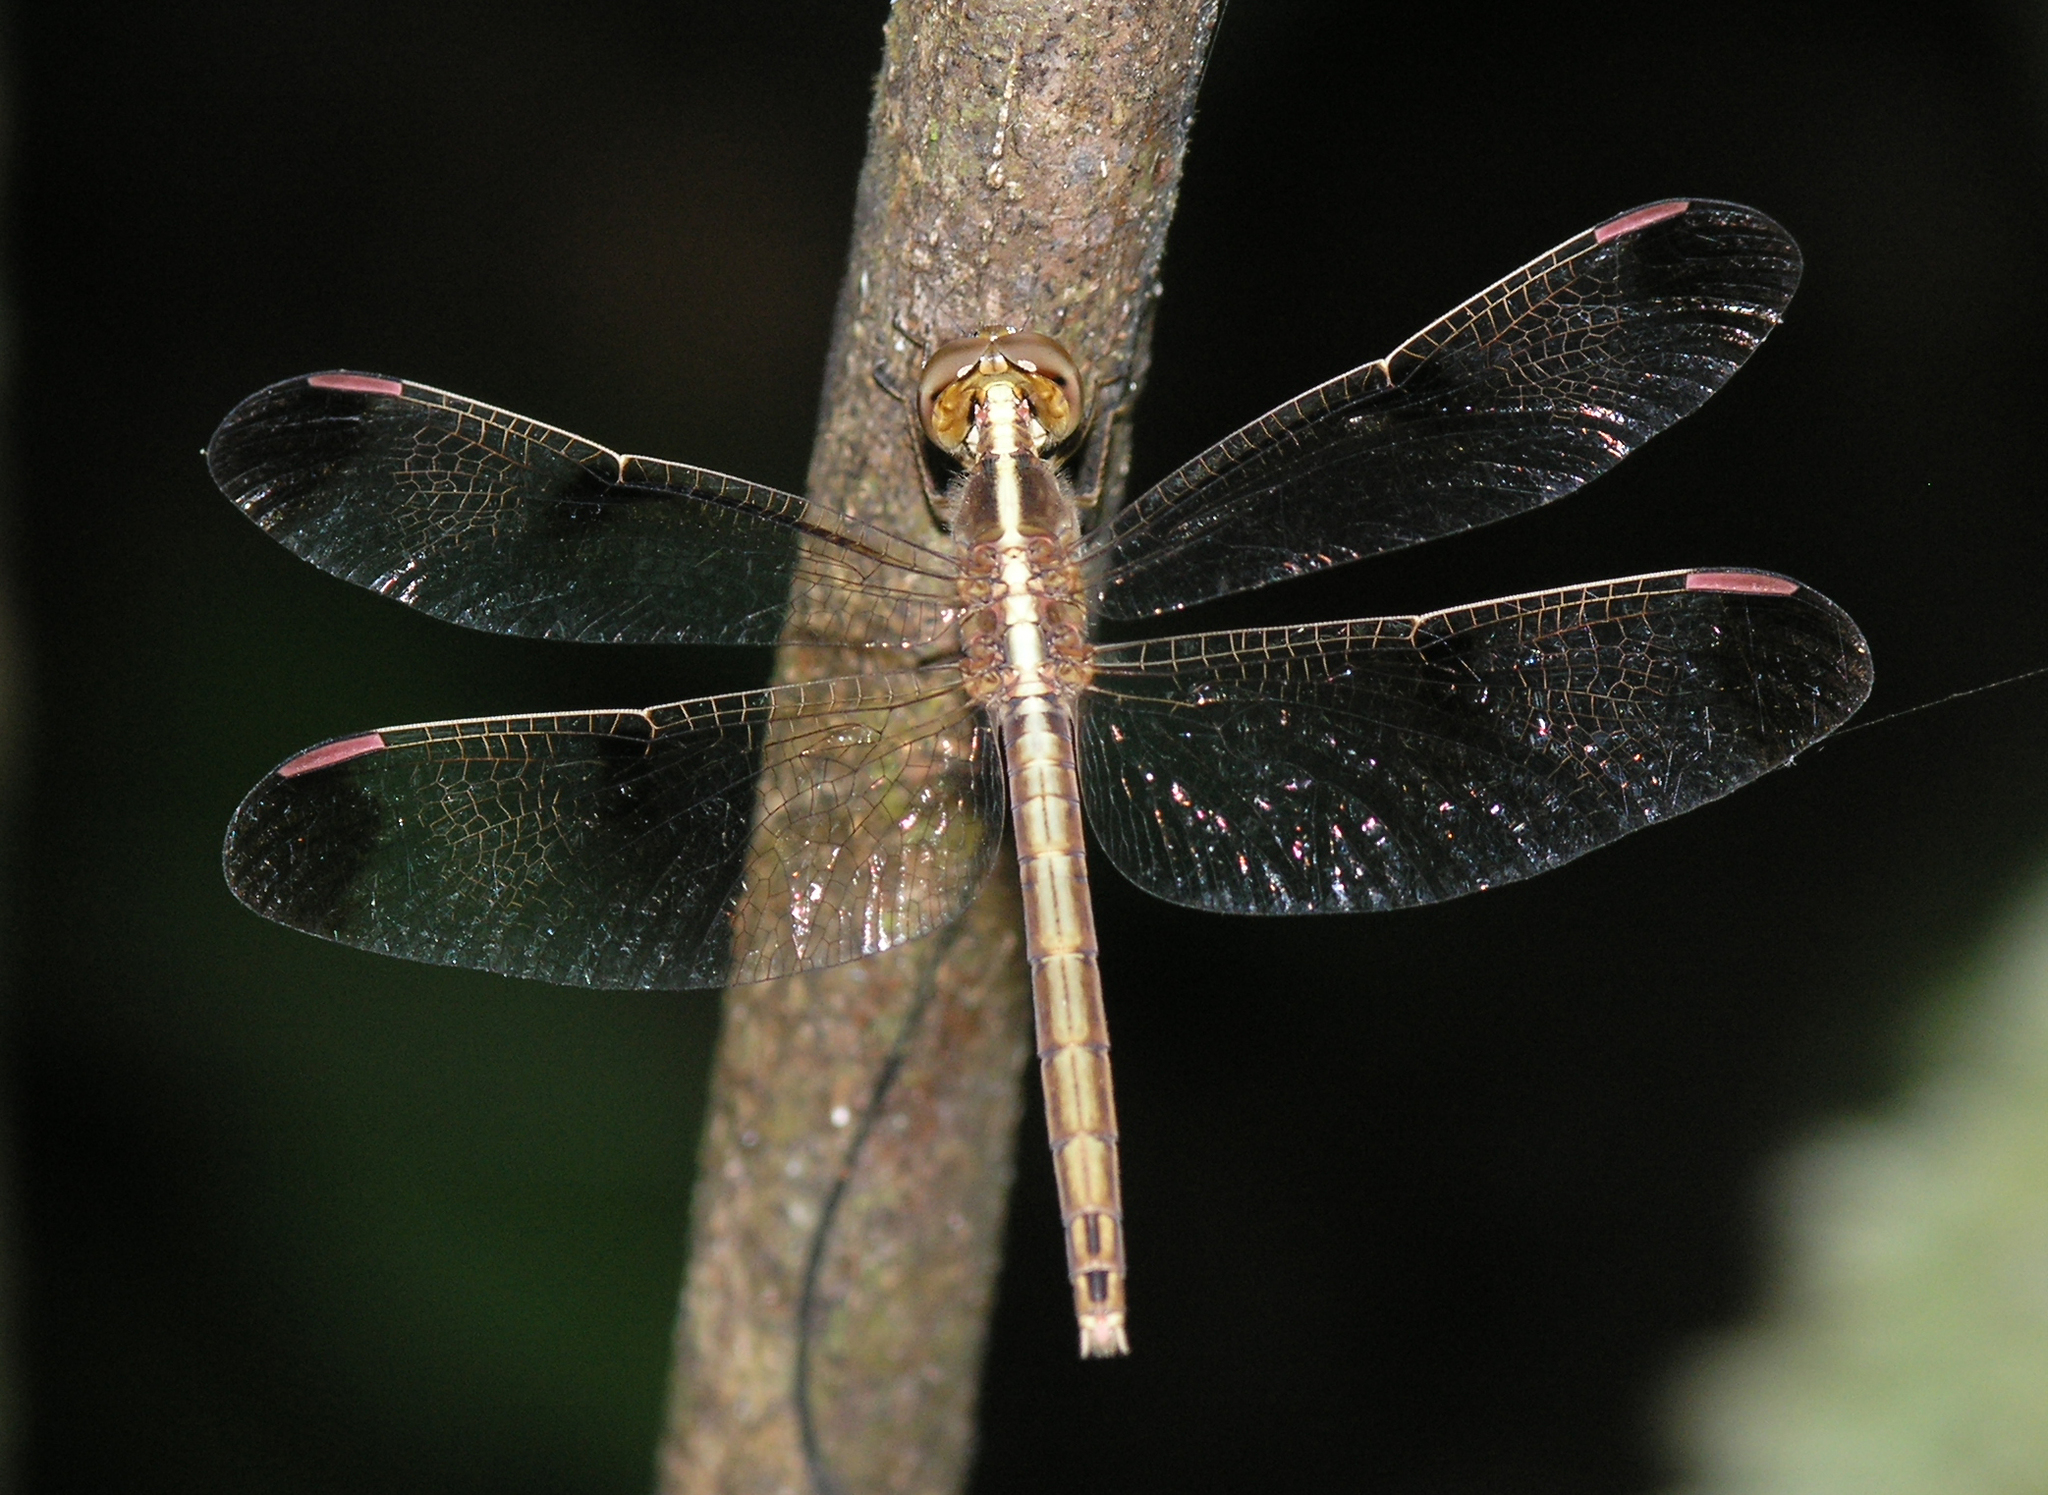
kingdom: Animalia
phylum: Arthropoda
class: Insecta
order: Odonata
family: Libellulidae
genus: Neurothemis
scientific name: Neurothemis tullia
